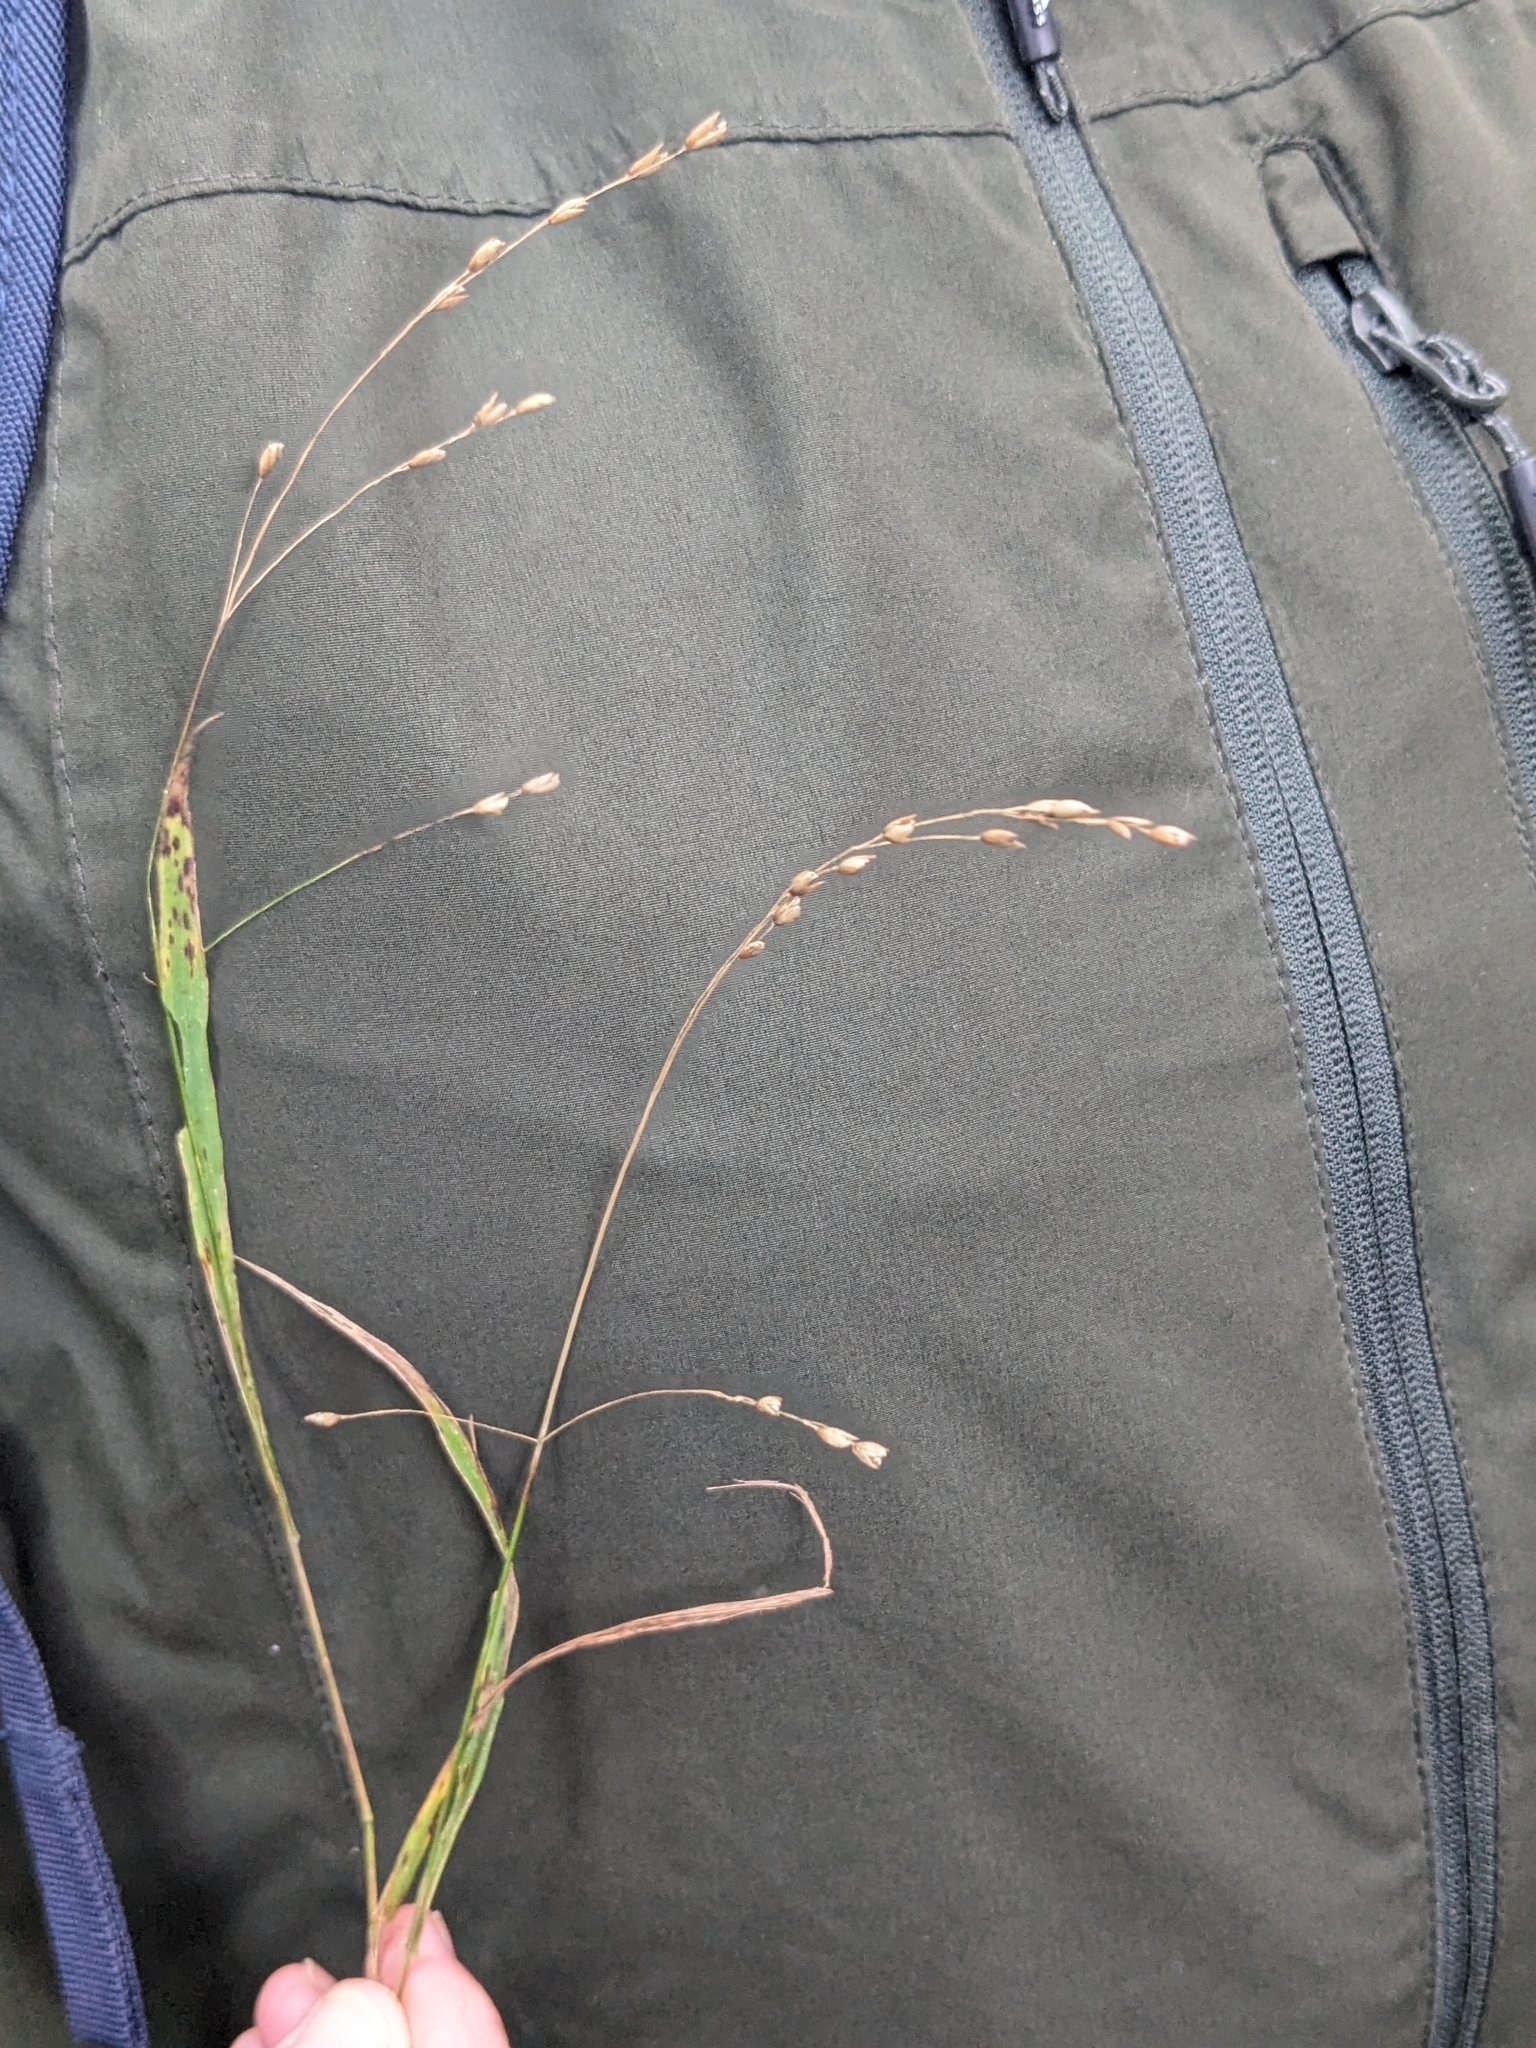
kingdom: Plantae
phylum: Tracheophyta
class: Liliopsida
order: Poales
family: Poaceae
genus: Melica
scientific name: Melica uniflora
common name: Wood melick
